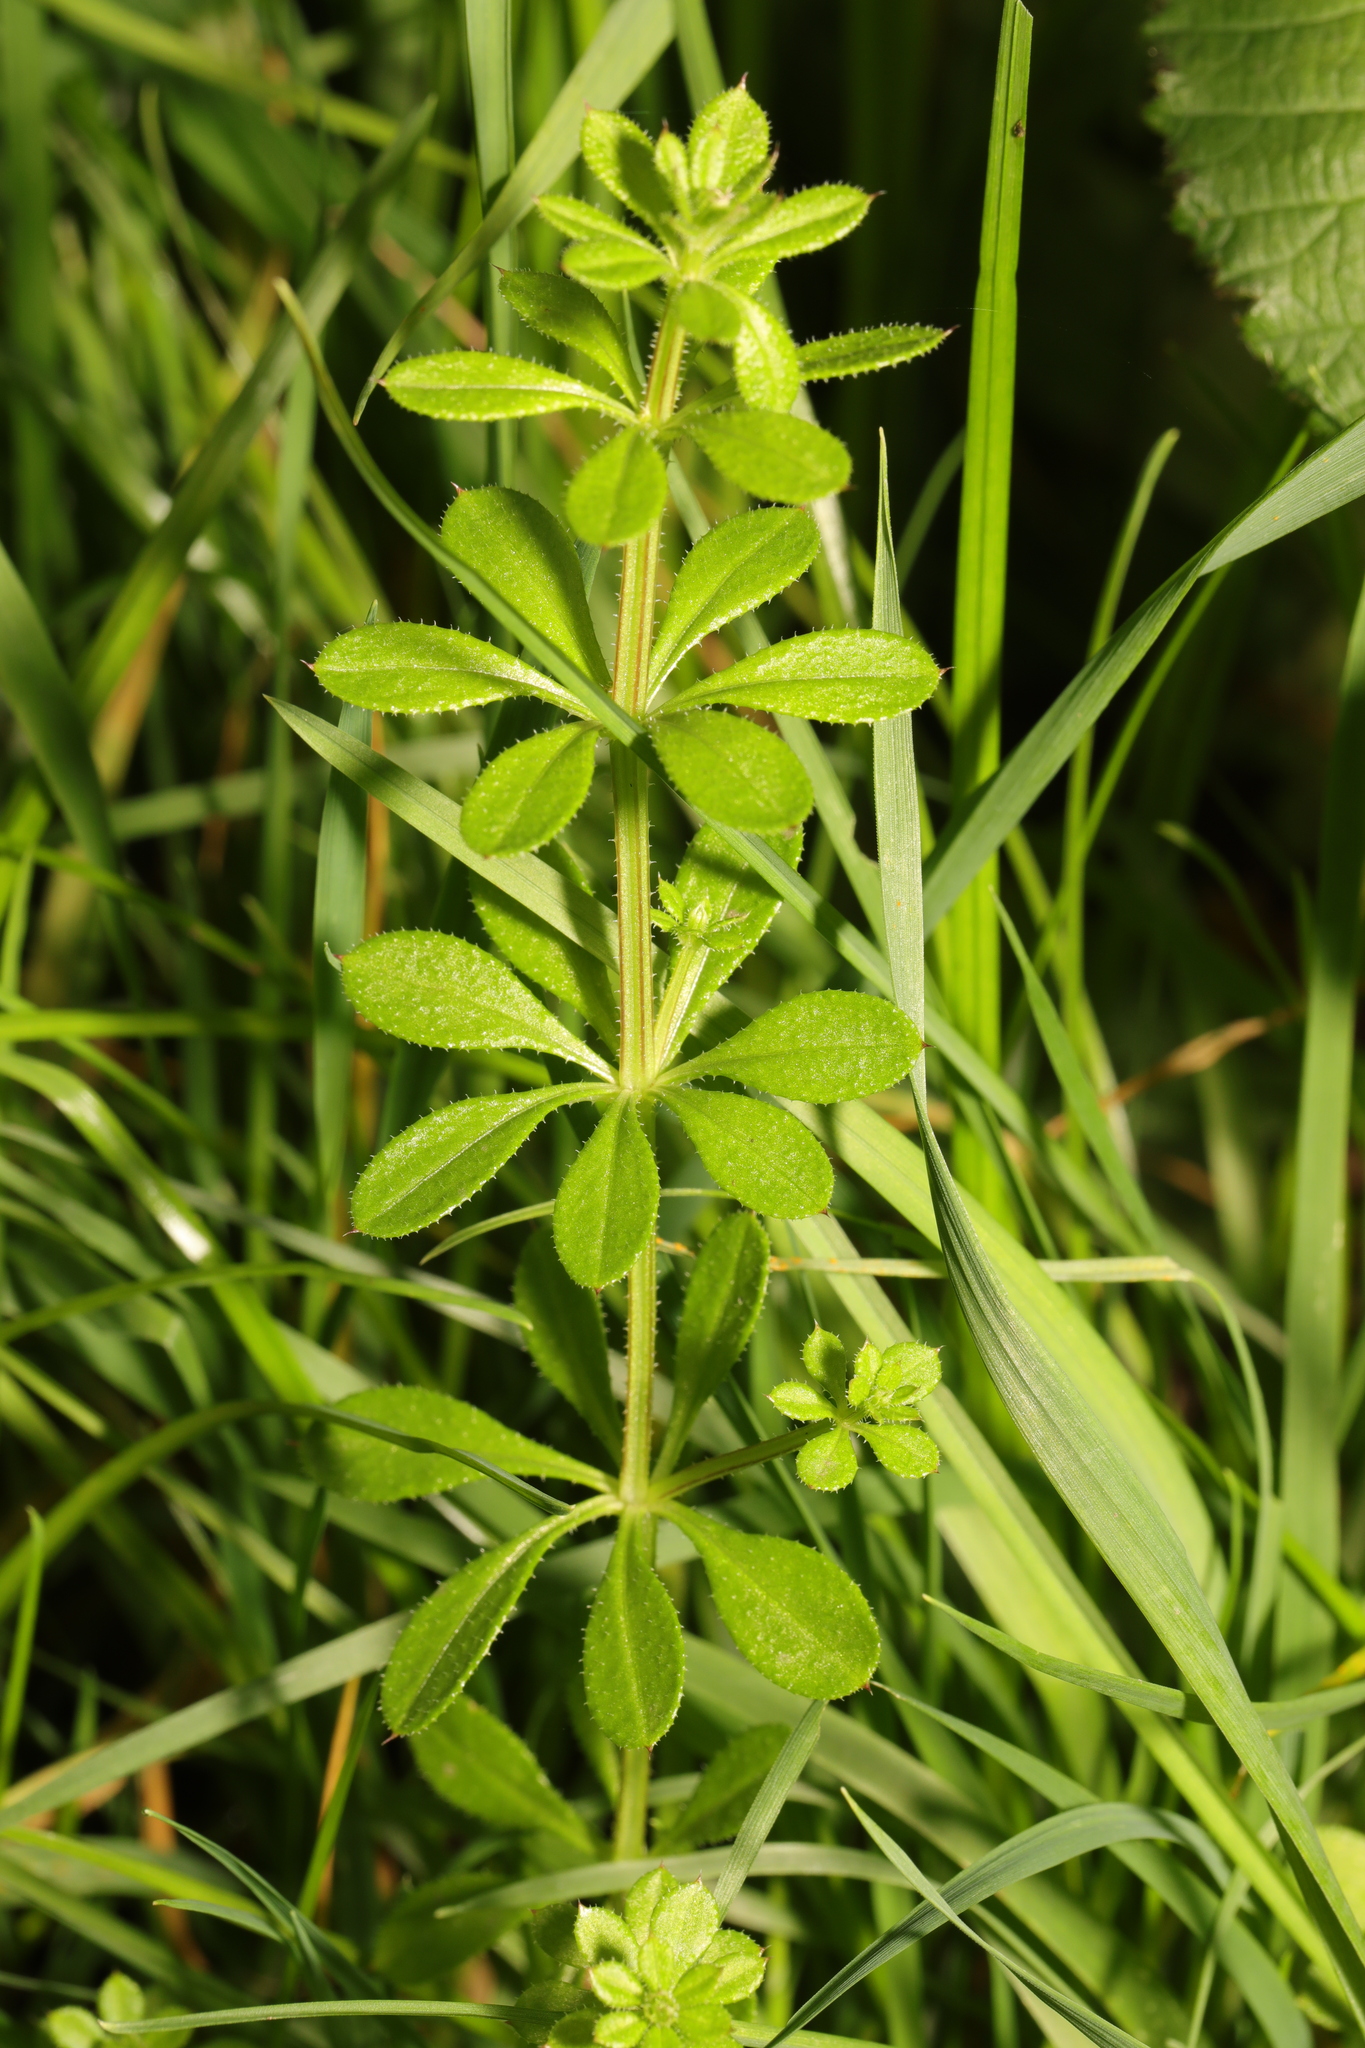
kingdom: Plantae
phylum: Tracheophyta
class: Magnoliopsida
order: Gentianales
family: Rubiaceae
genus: Galium
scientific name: Galium aparine
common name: Cleavers
